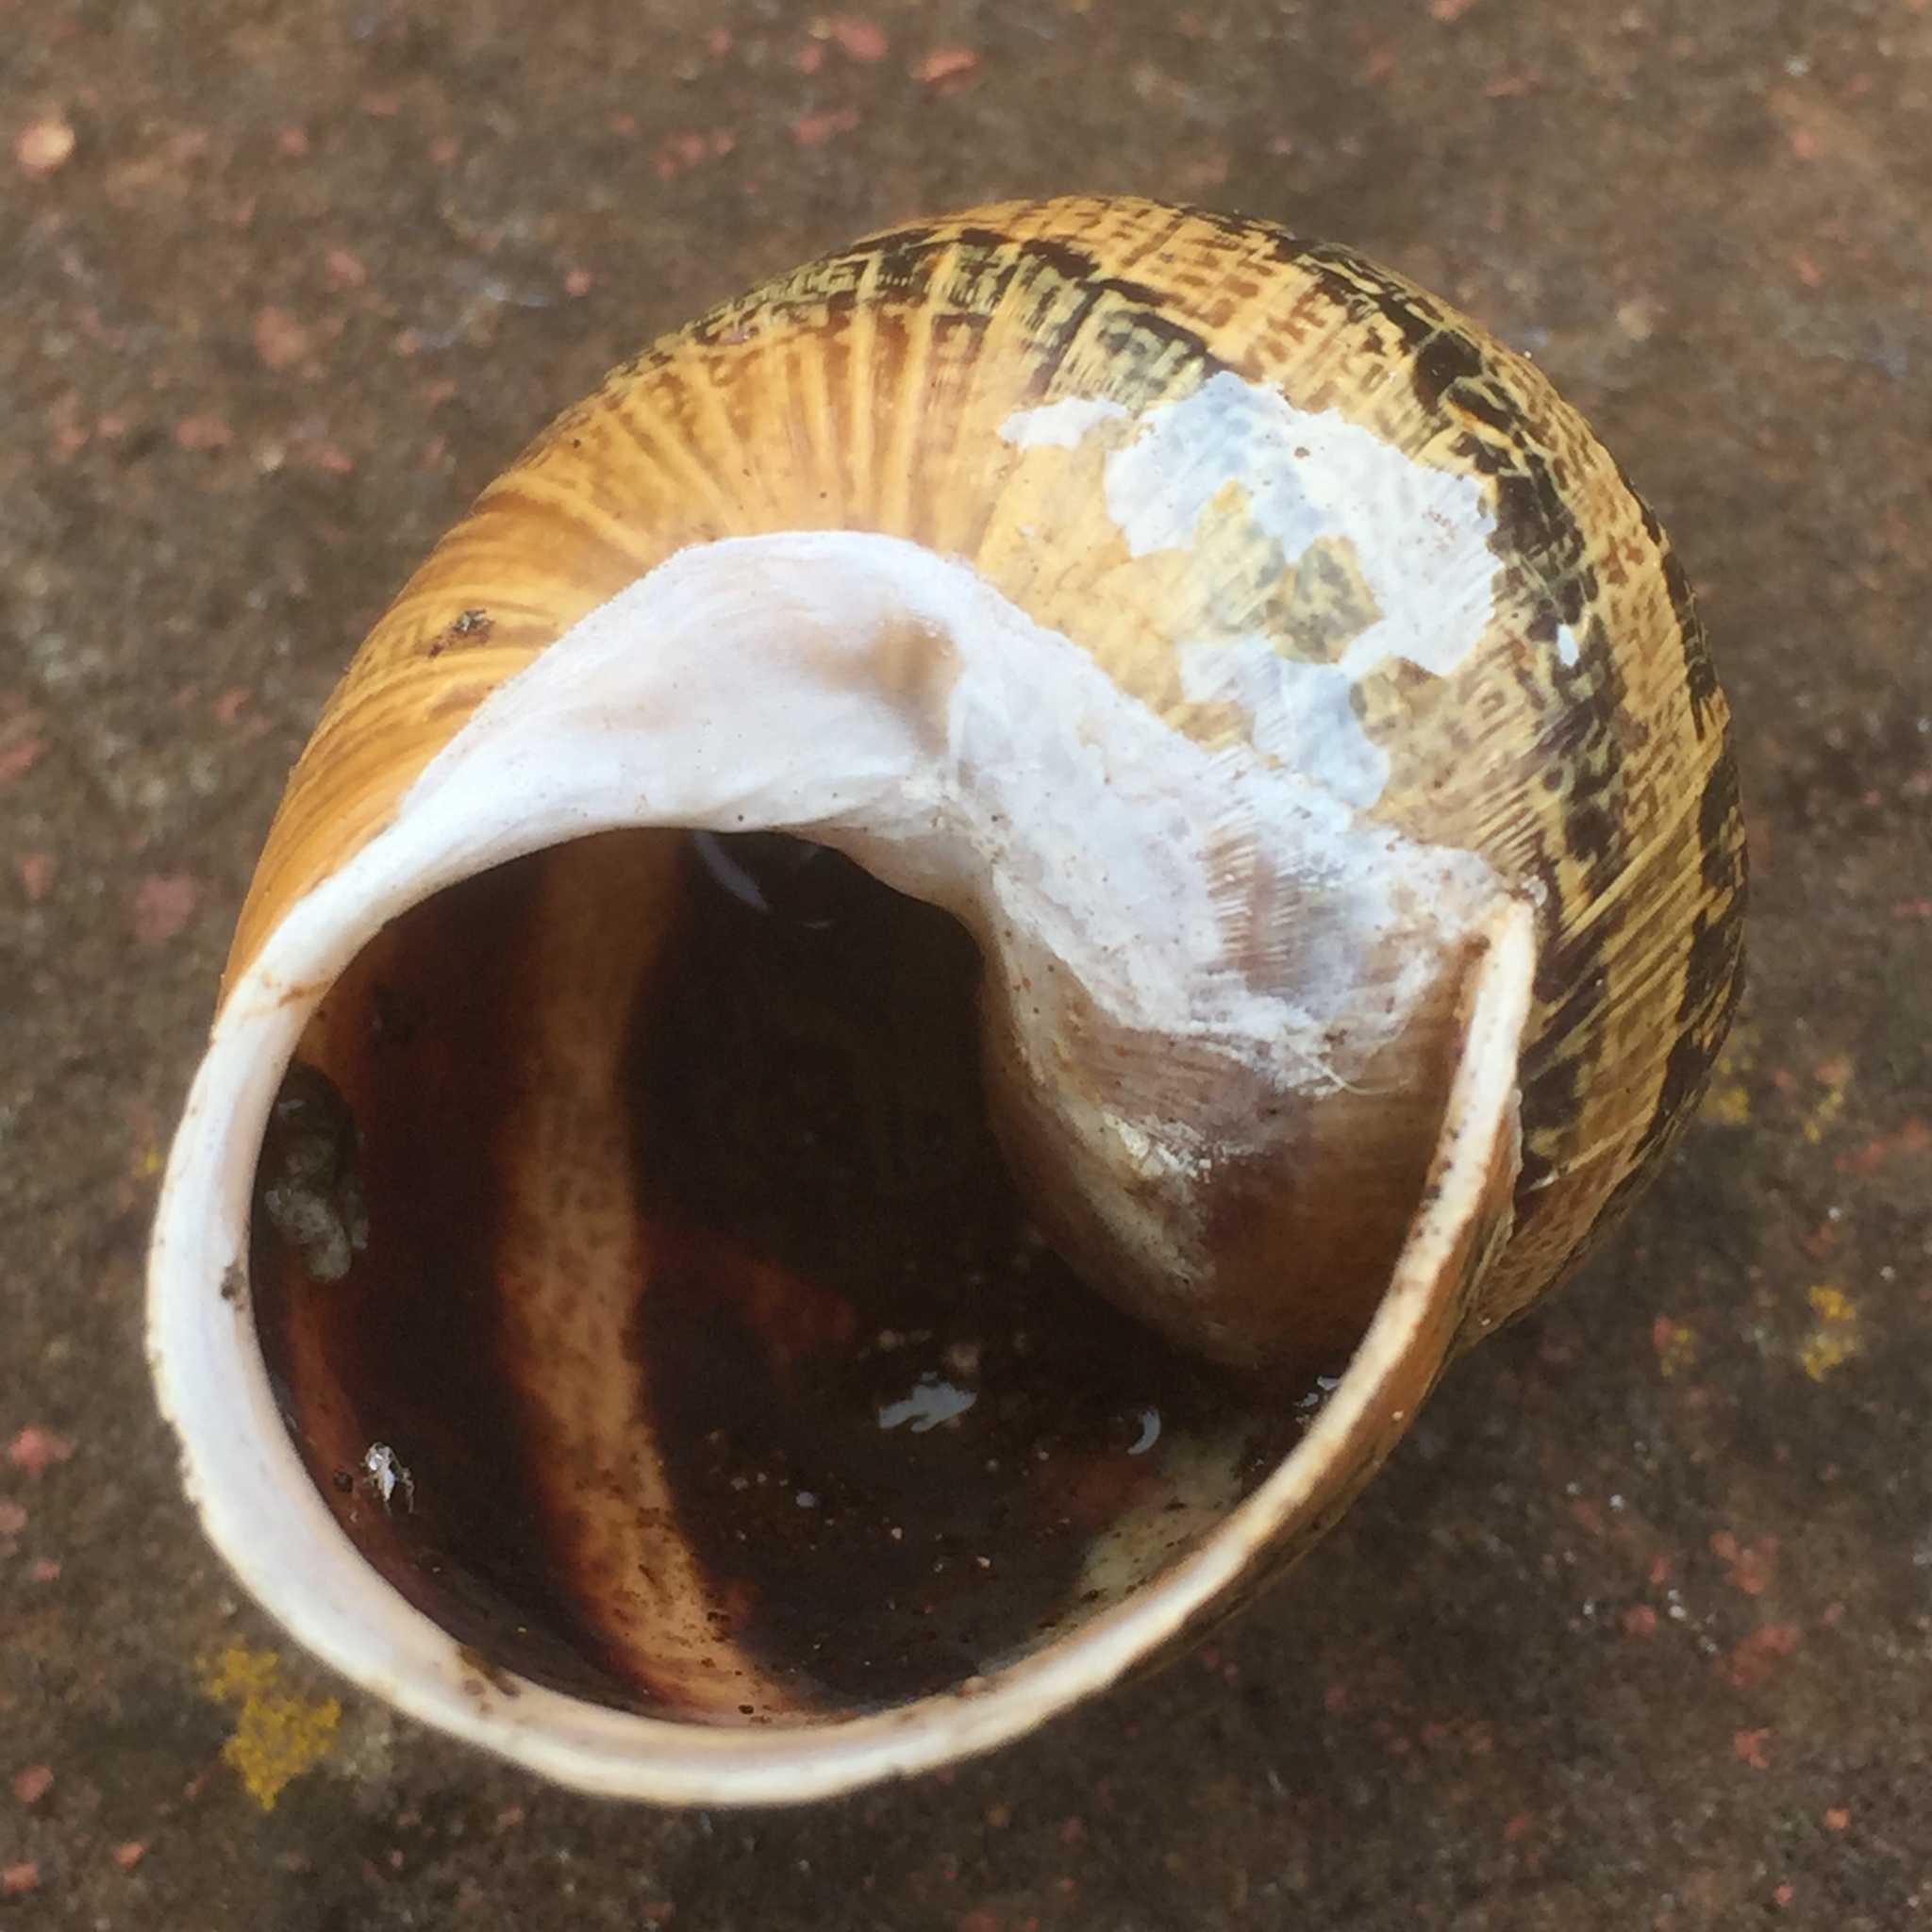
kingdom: Animalia
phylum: Mollusca
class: Gastropoda
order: Stylommatophora
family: Helicidae
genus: Cornu
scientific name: Cornu aspersum
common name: Brown garden snail
